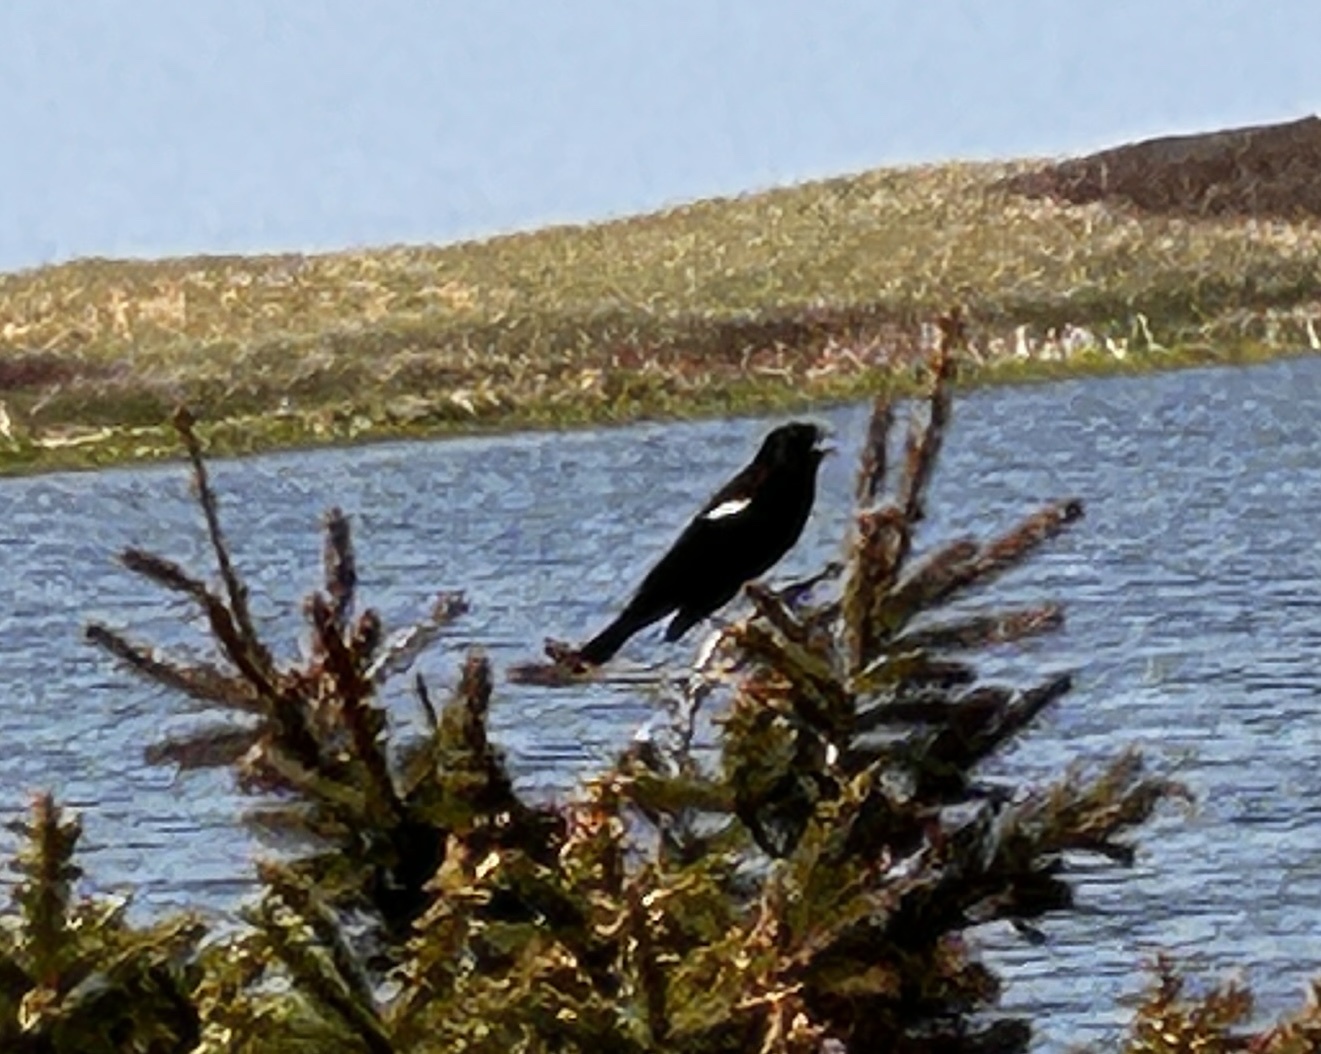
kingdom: Animalia
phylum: Chordata
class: Aves
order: Passeriformes
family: Icteridae
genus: Agelaius
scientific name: Agelaius phoeniceus
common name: Red-winged blackbird
